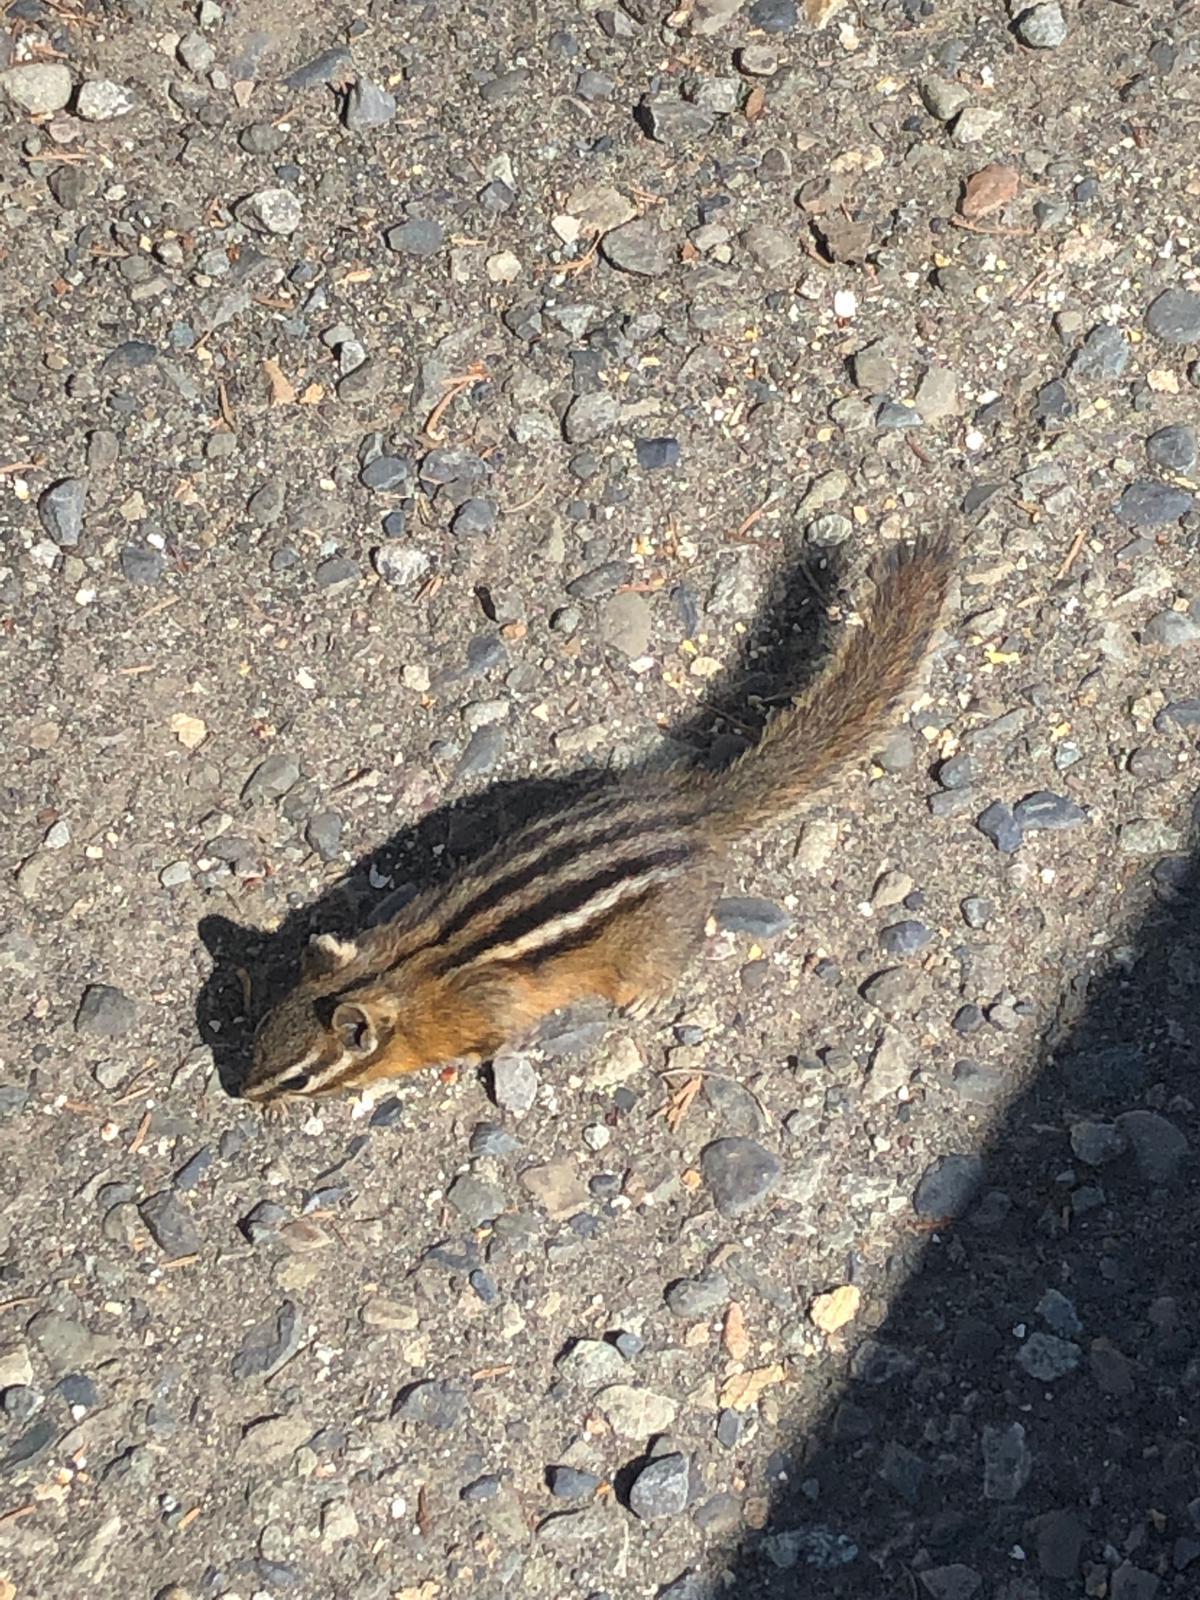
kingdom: Animalia
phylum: Chordata
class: Mammalia
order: Rodentia
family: Sciuridae
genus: Tamias
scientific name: Tamias amoenus
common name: Yellow-pine chipmunk
